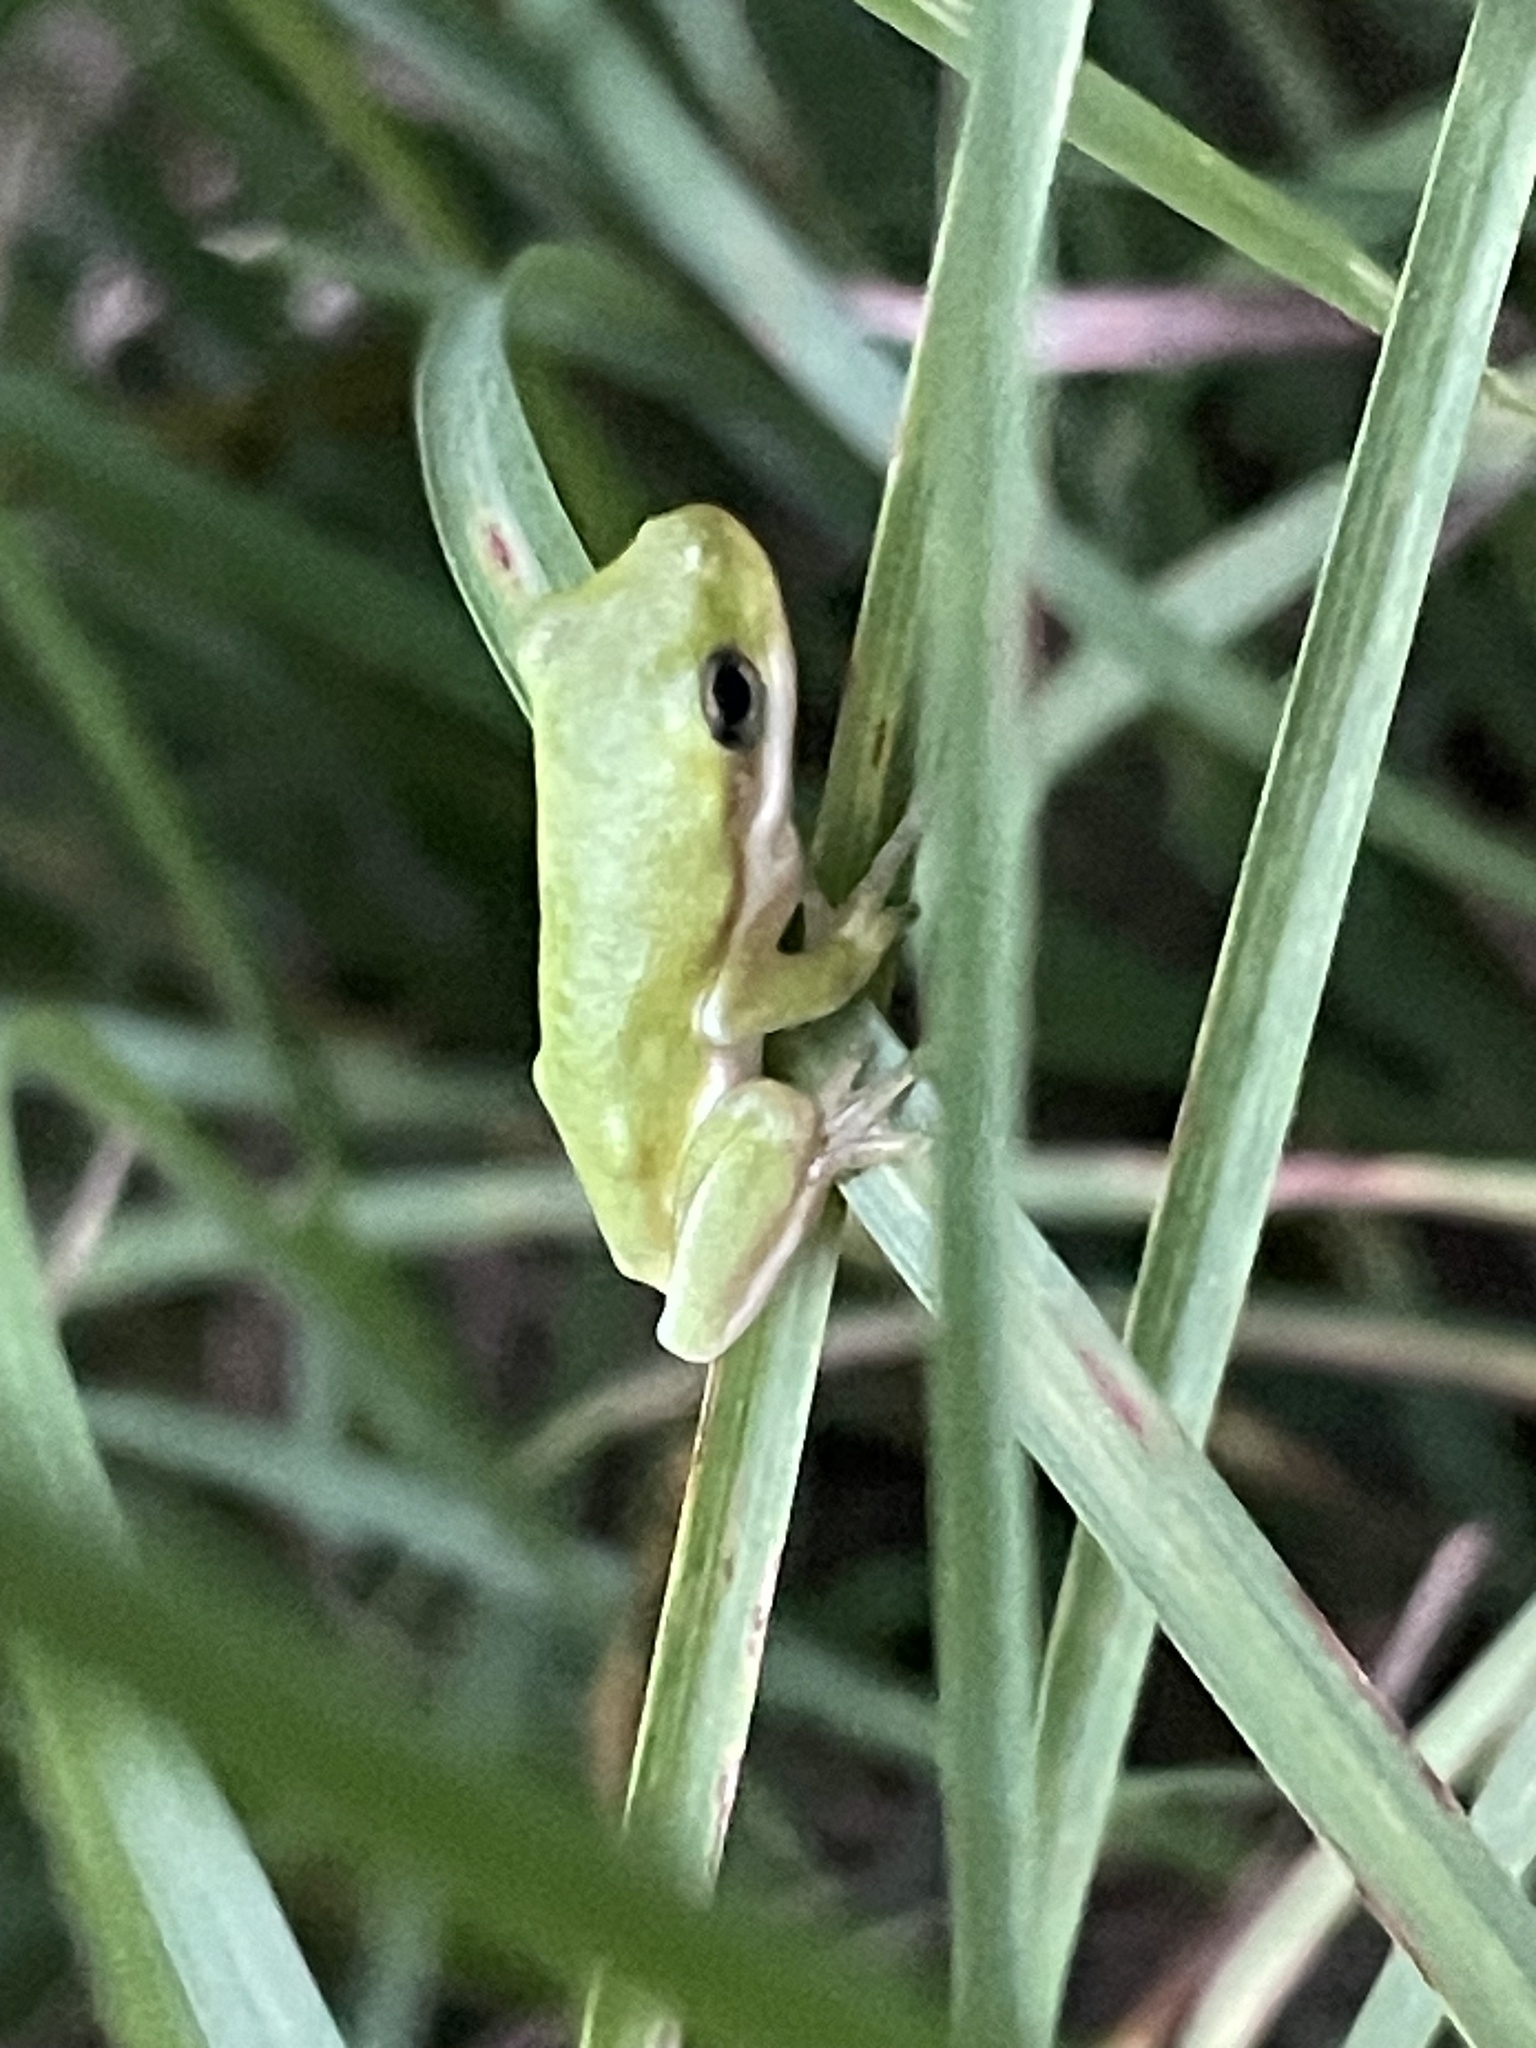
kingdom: Animalia
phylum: Chordata
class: Amphibia
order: Anura
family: Hylidae
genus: Dryophytes
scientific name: Dryophytes cinereus
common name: Green treefrog
